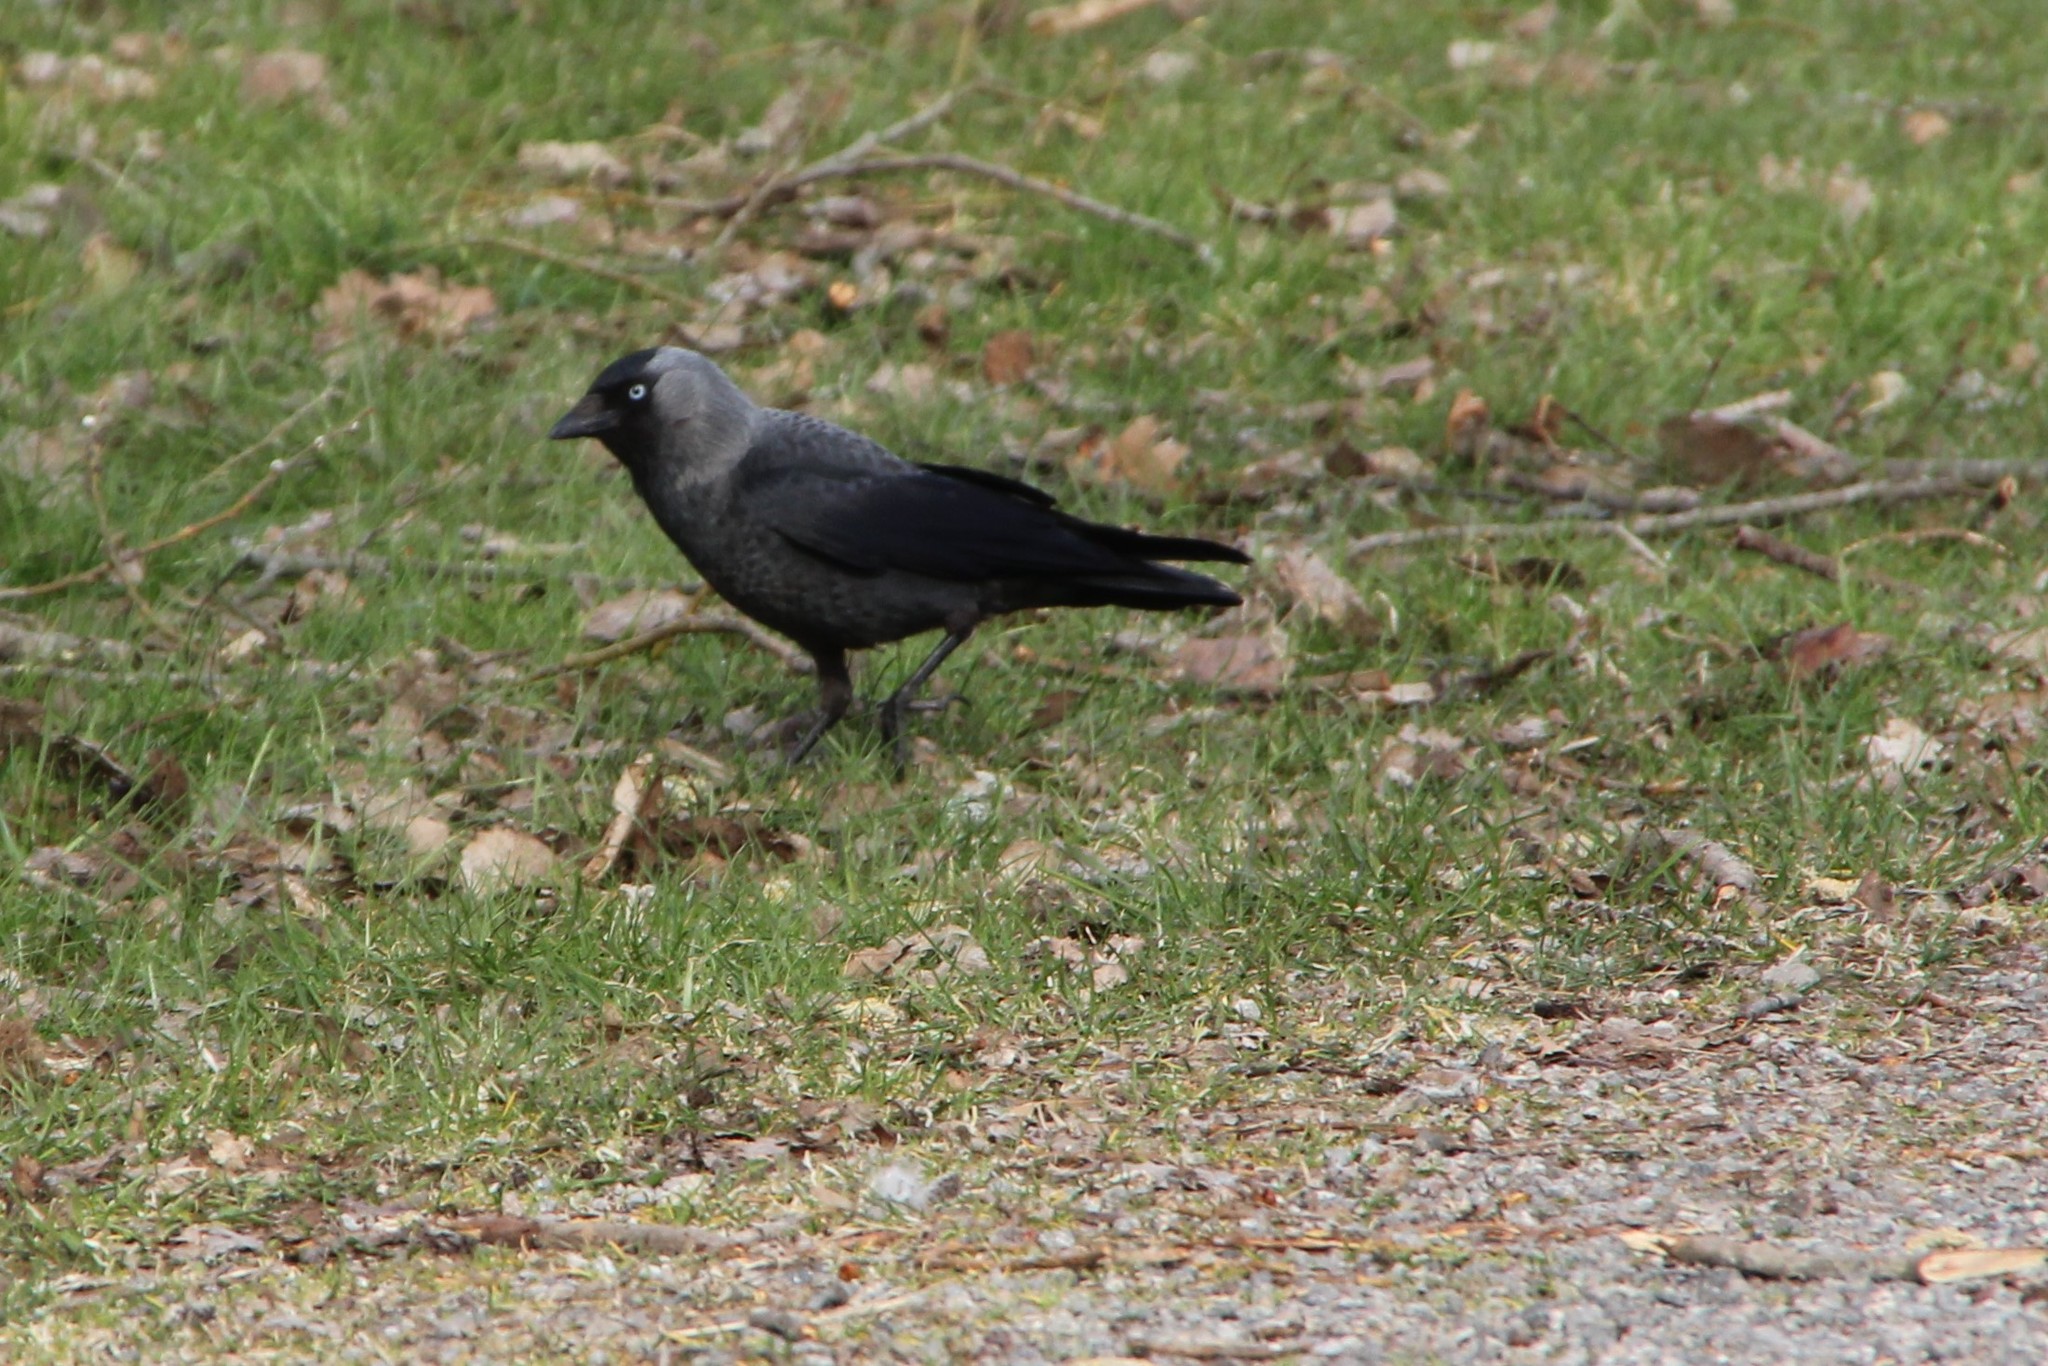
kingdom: Animalia
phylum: Chordata
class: Aves
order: Passeriformes
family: Corvidae
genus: Coloeus
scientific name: Coloeus monedula
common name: Western jackdaw
